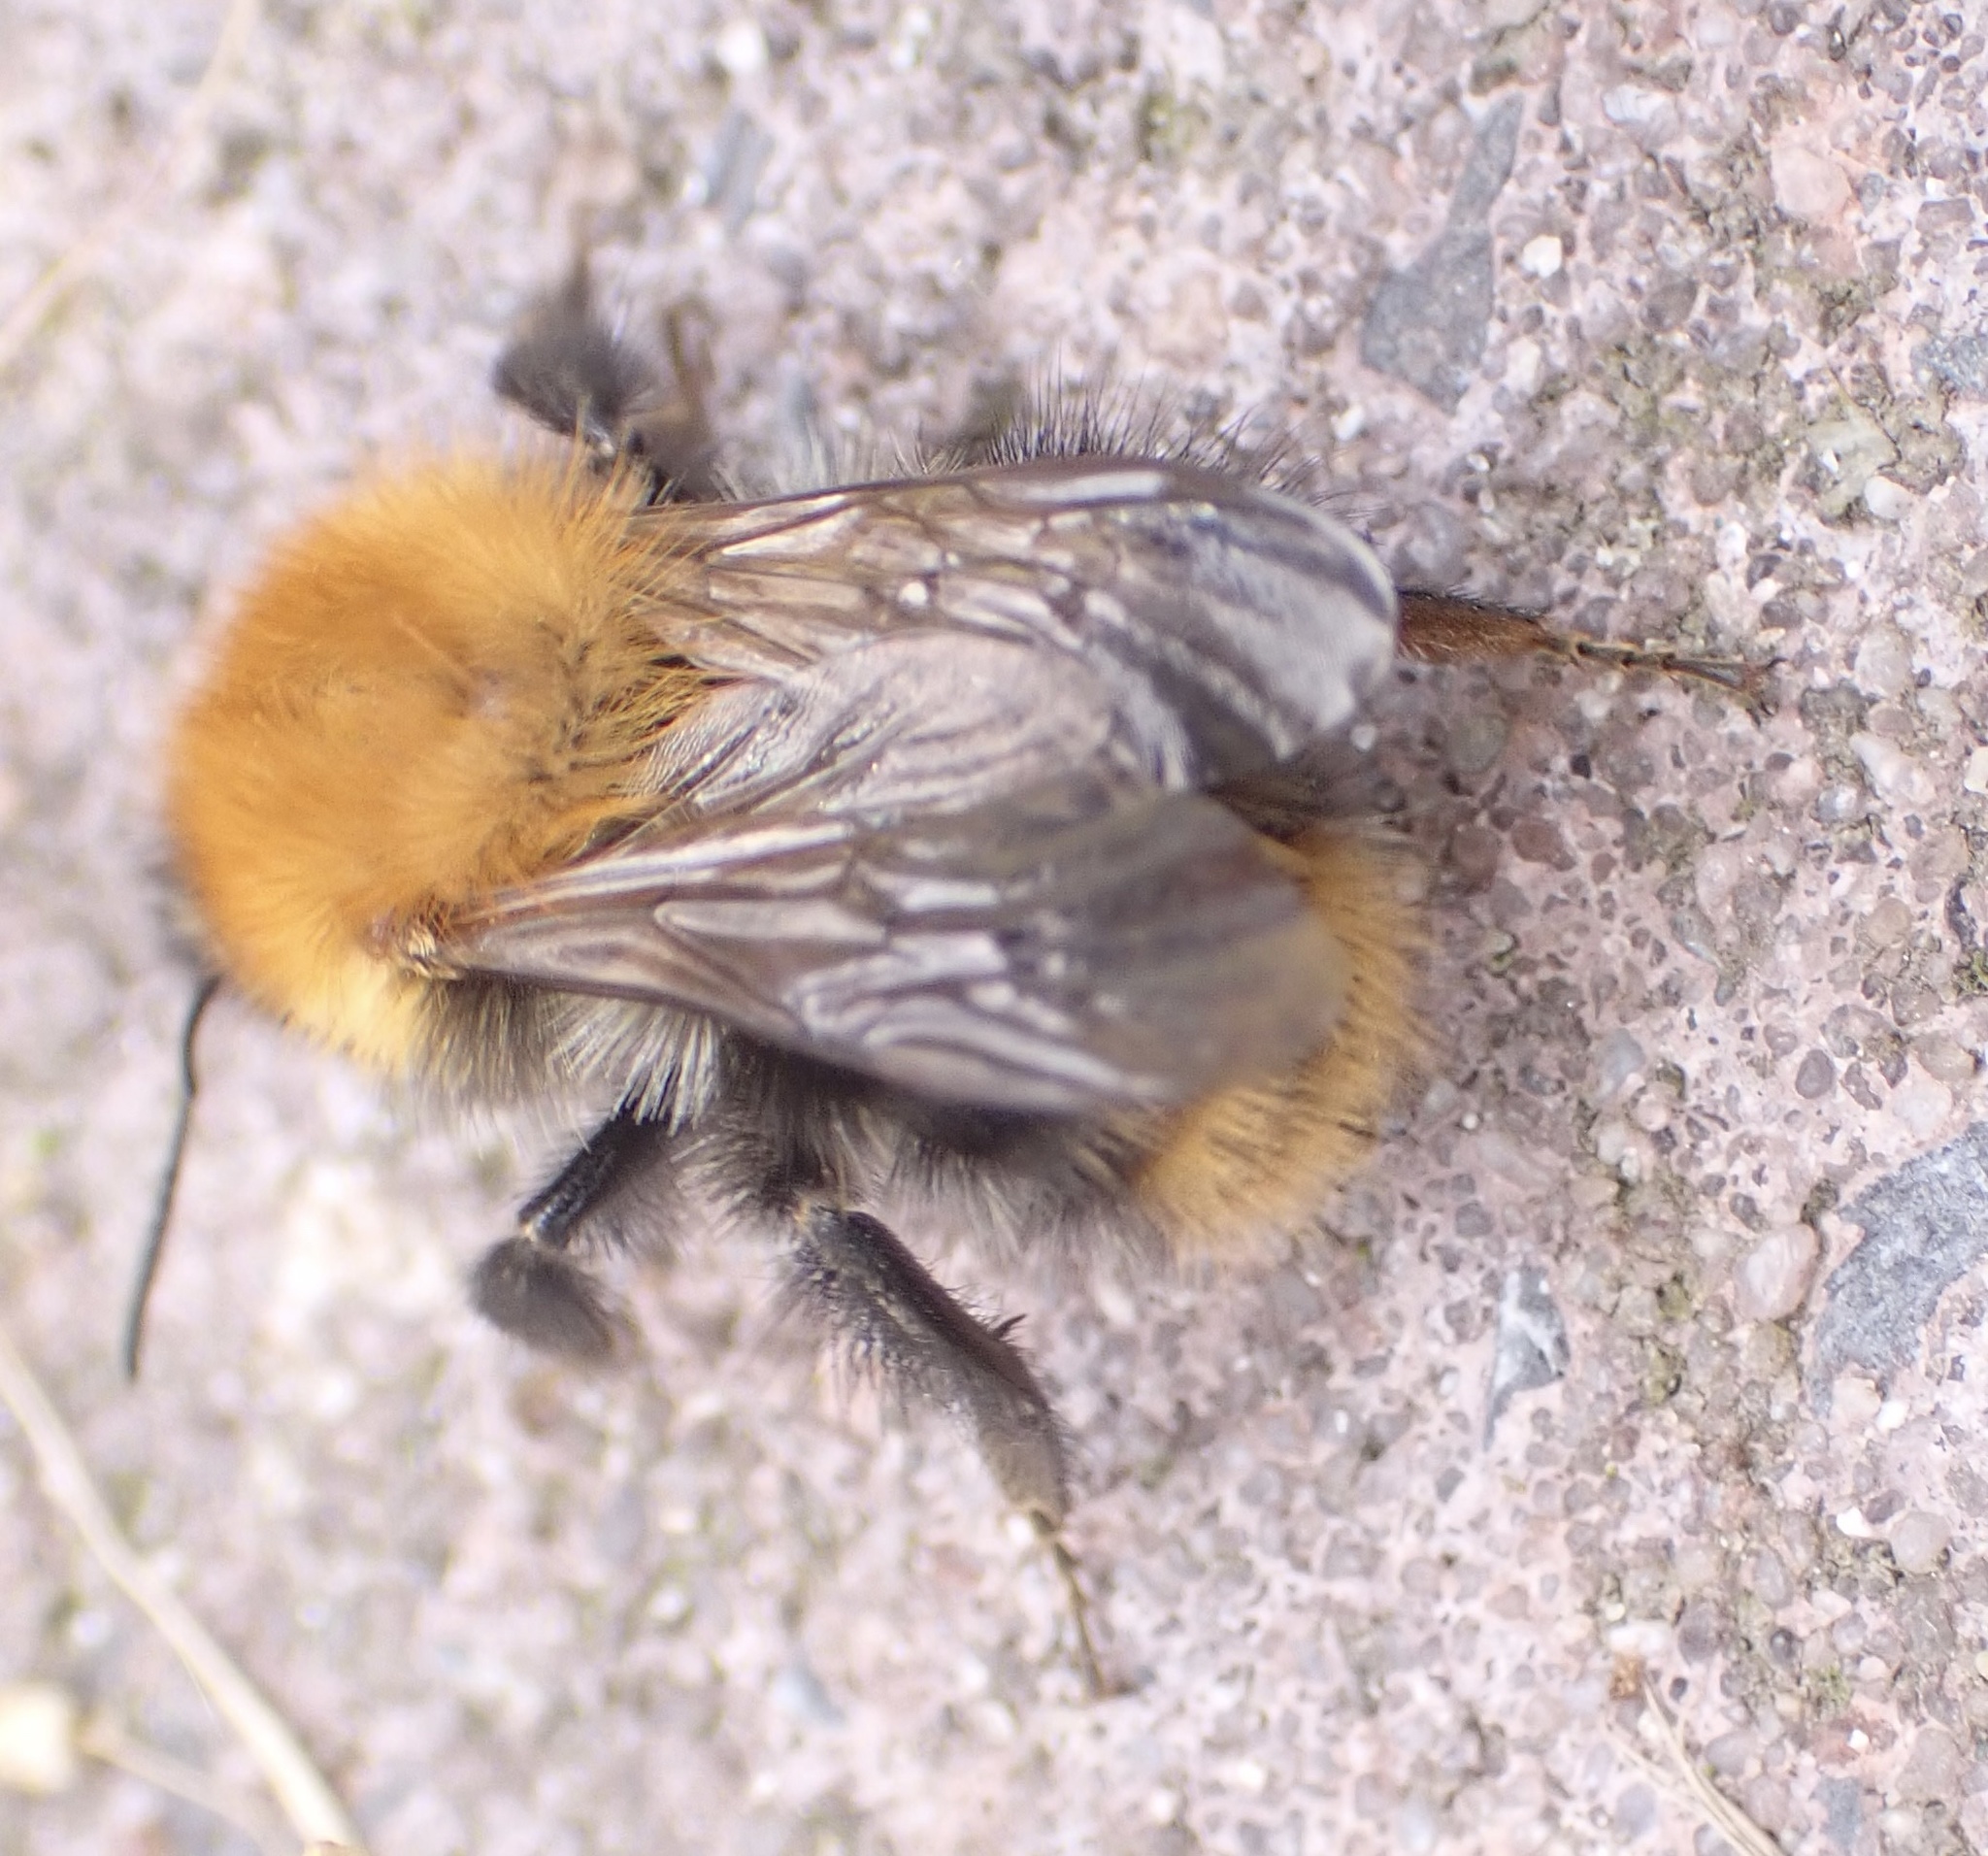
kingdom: Animalia
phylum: Arthropoda
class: Insecta
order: Hymenoptera
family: Apidae
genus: Bombus
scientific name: Bombus pascuorum
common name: Common carder bee
